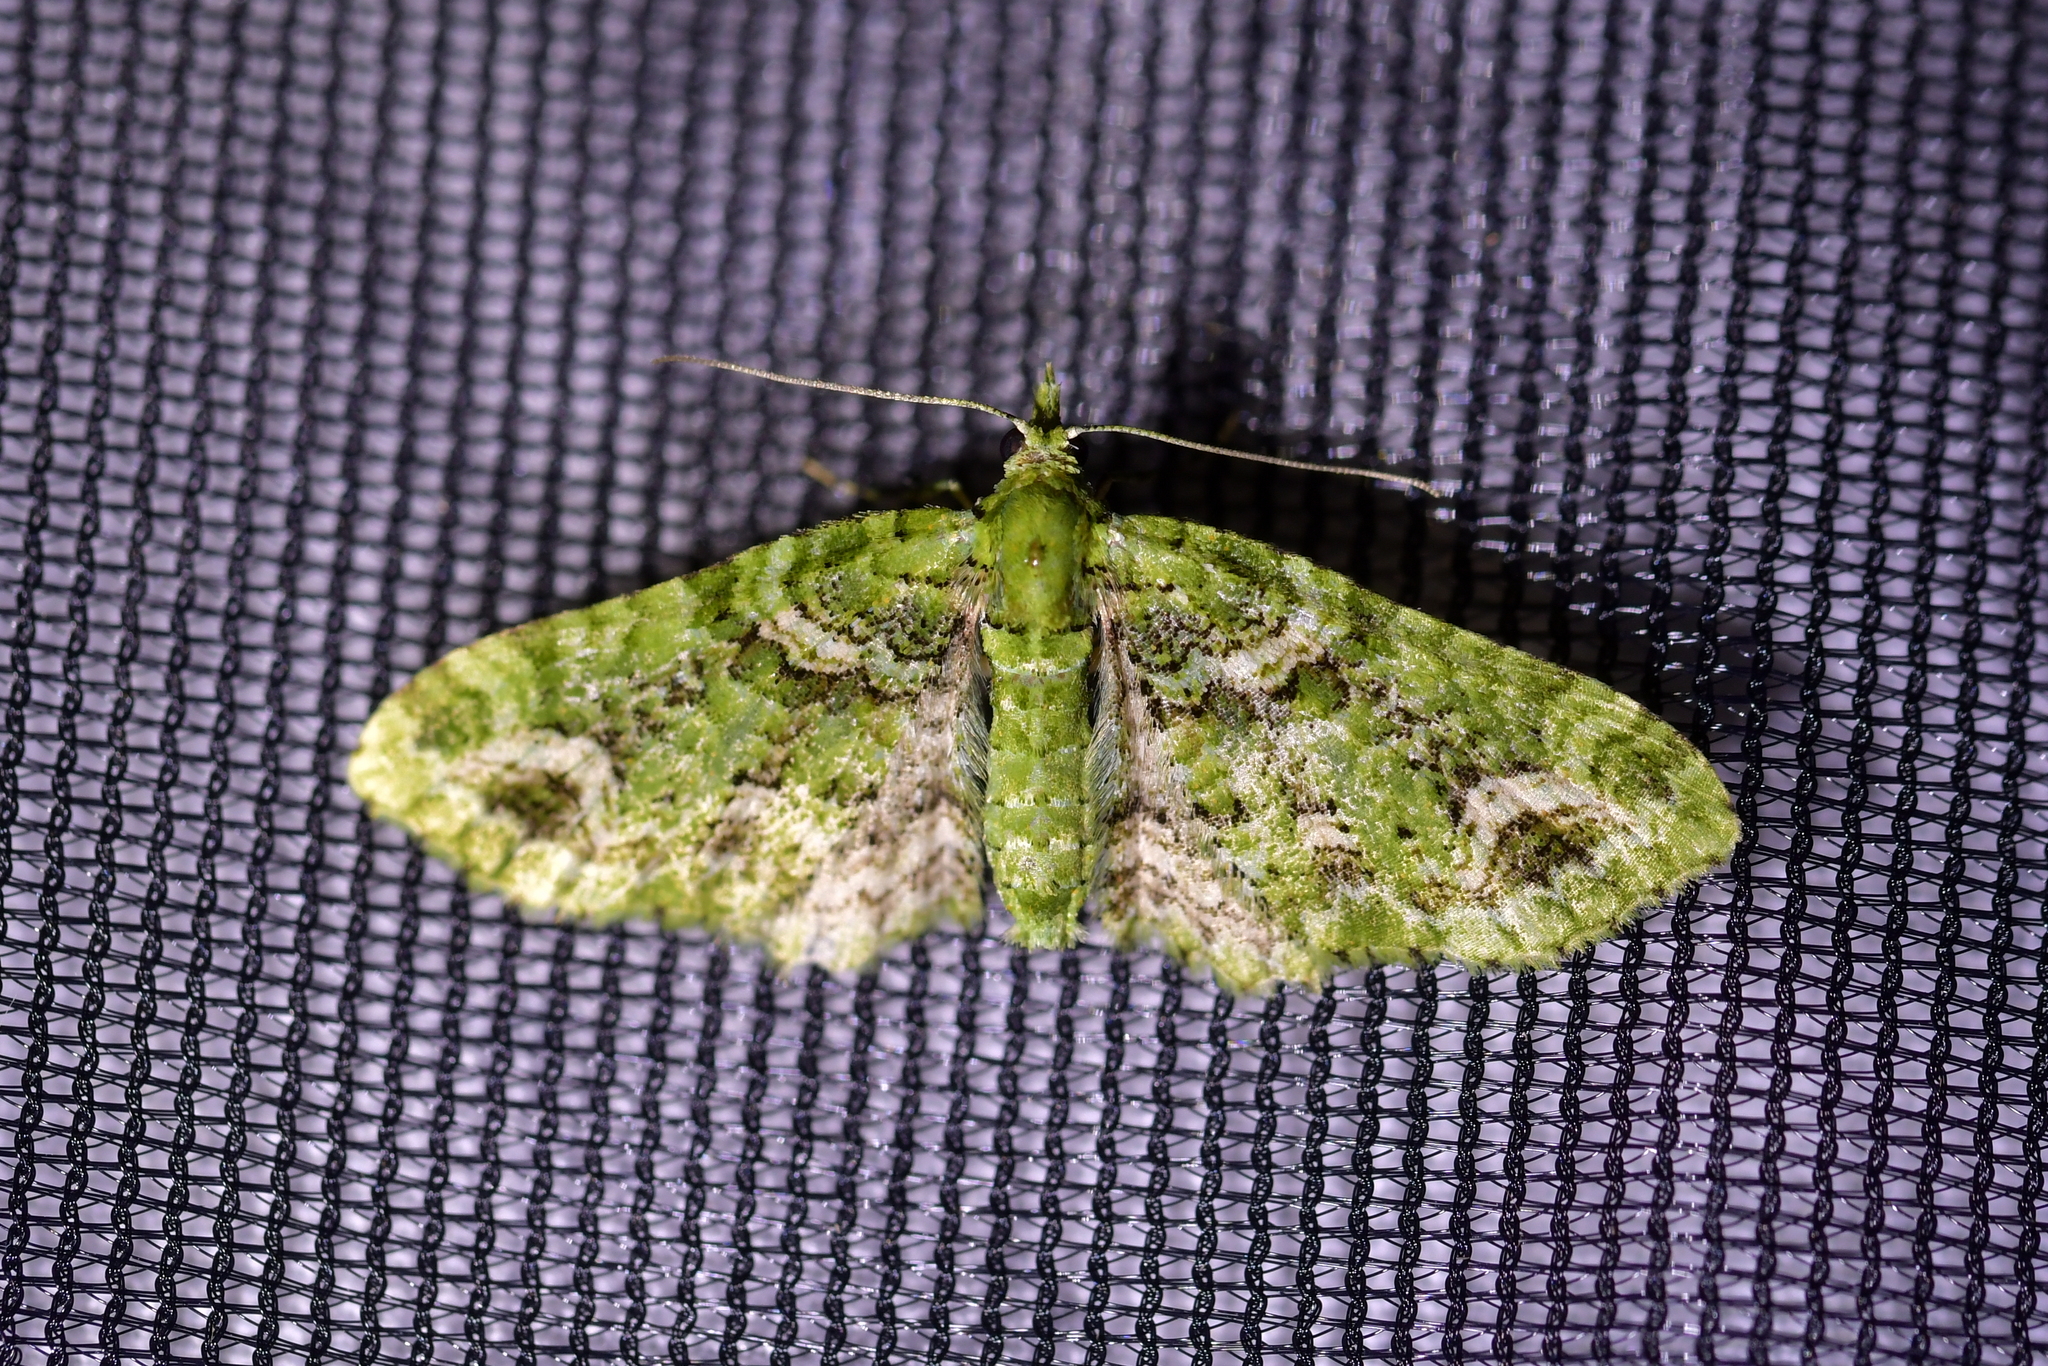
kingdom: Animalia
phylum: Arthropoda
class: Insecta
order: Lepidoptera
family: Geometridae
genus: Pasiphila
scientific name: Pasiphila muscosata
